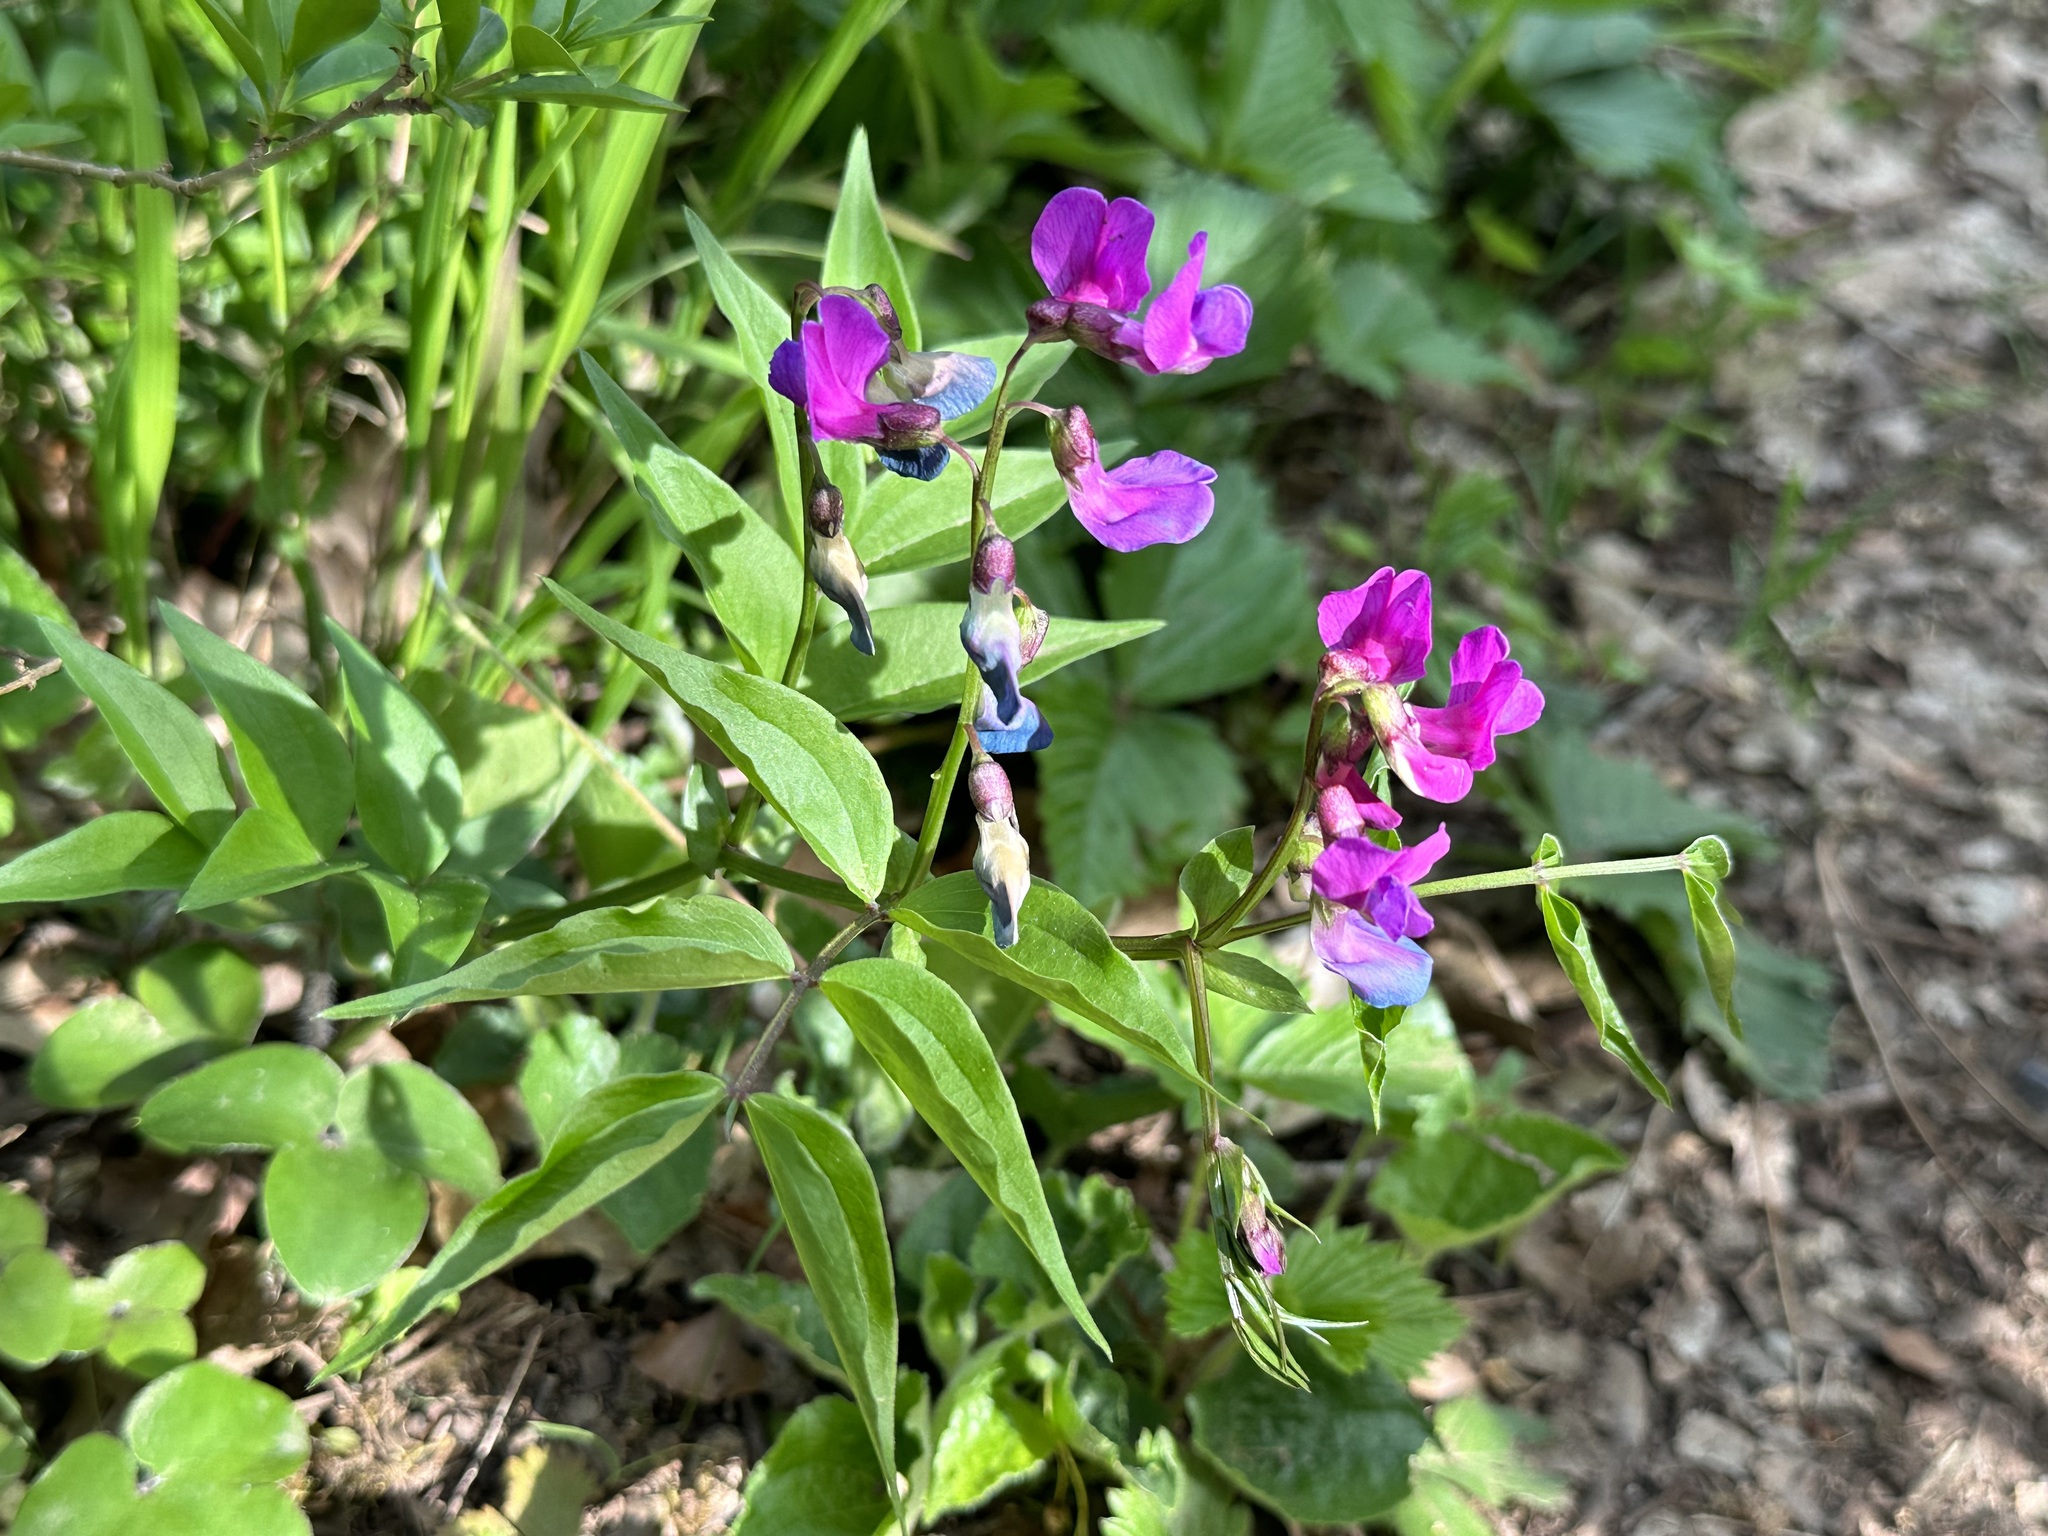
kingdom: Plantae
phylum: Tracheophyta
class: Magnoliopsida
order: Fabales
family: Fabaceae
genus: Lathyrus
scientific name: Lathyrus vernus
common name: Spring pea
